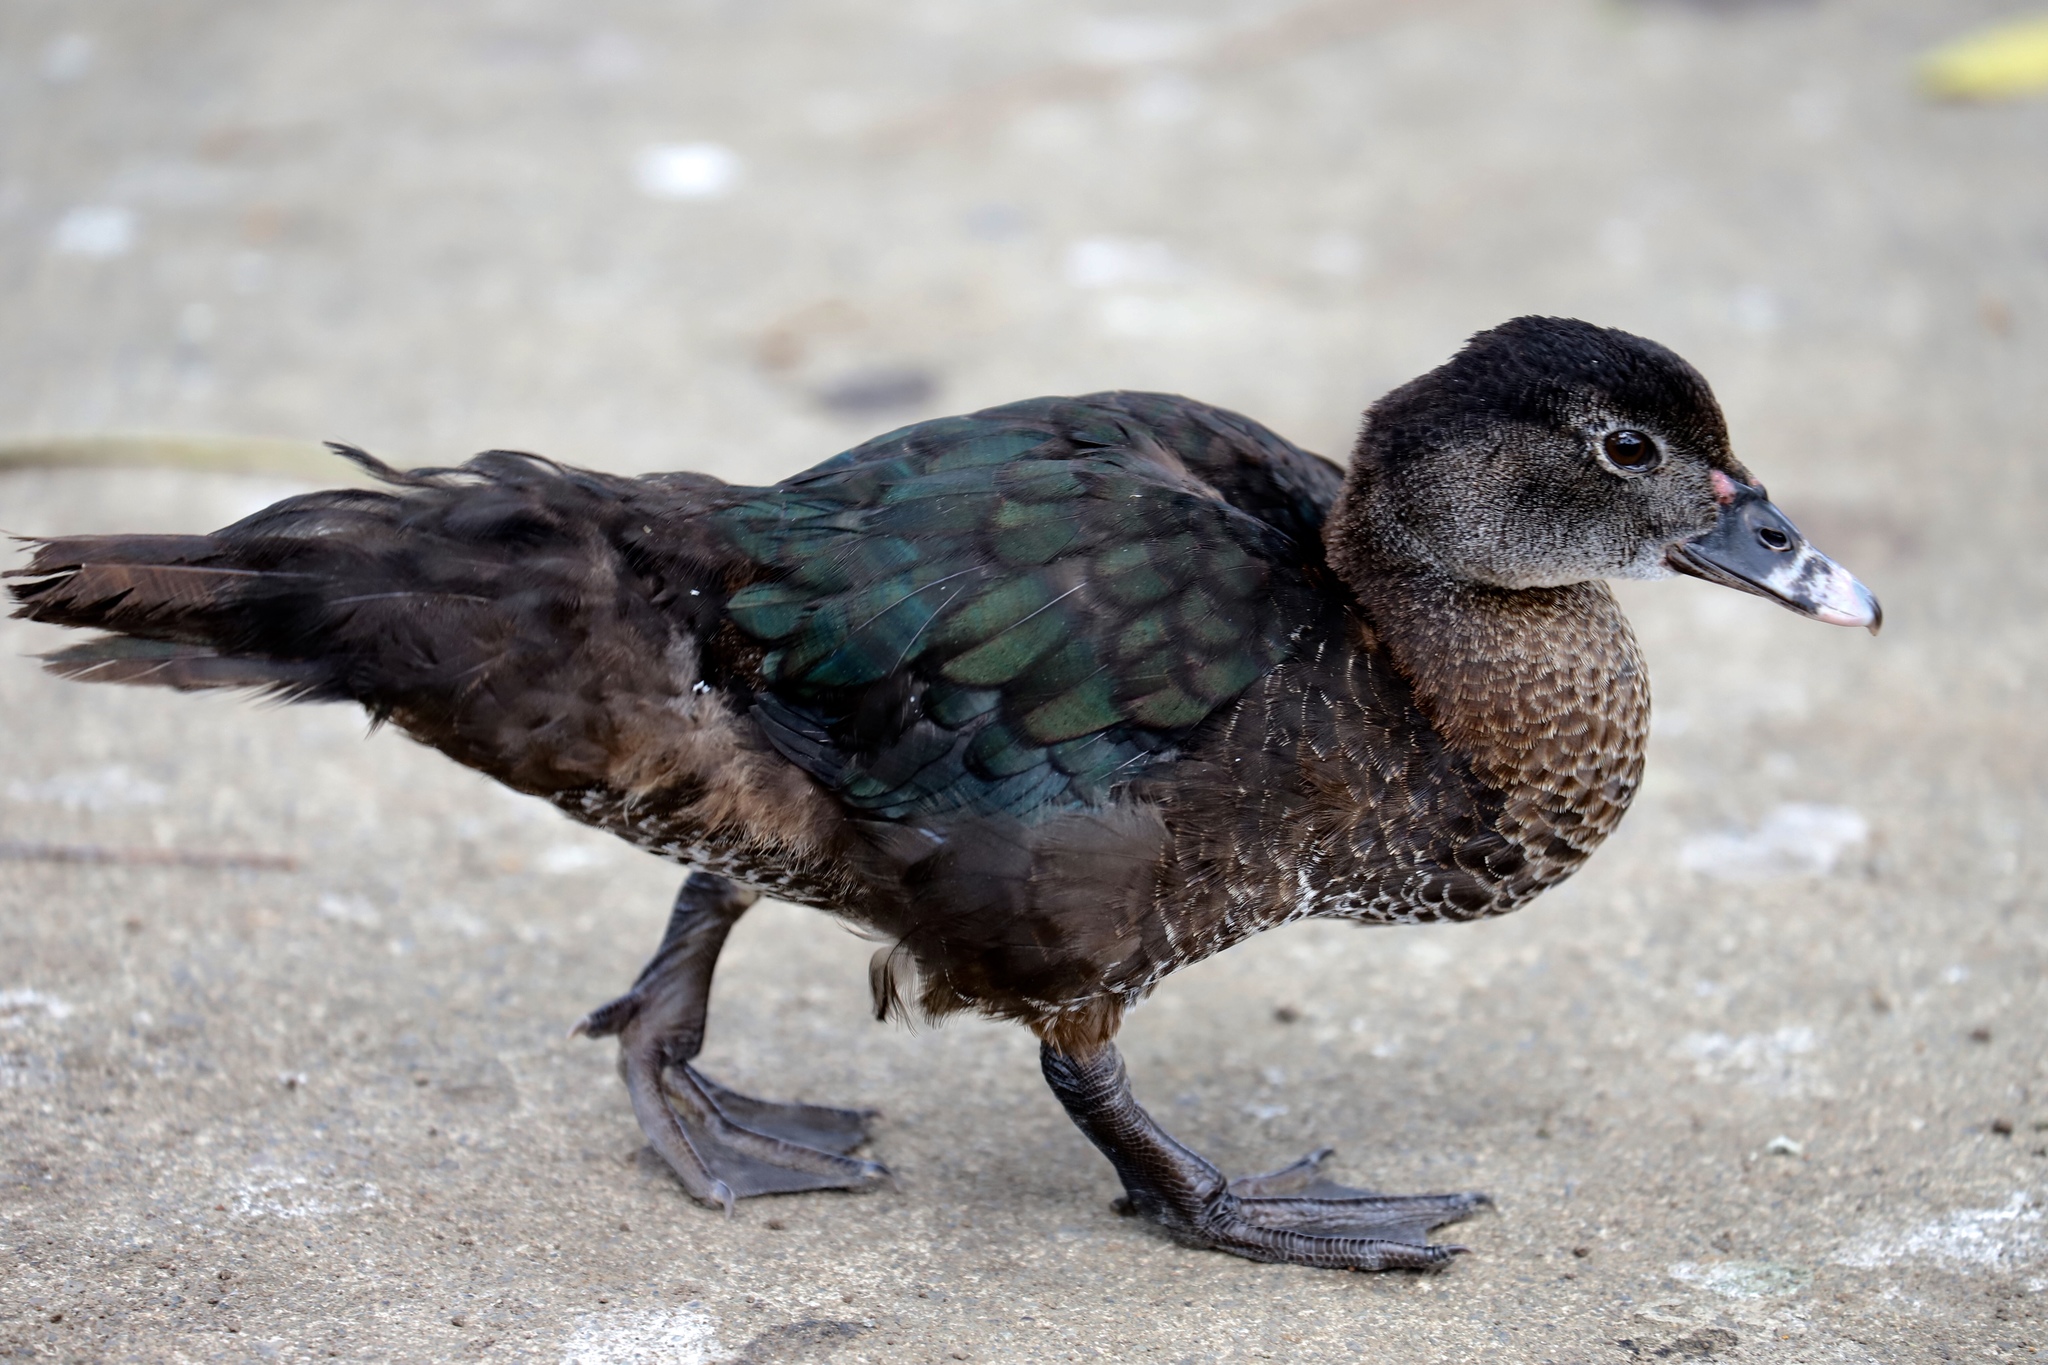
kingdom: Animalia
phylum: Chordata
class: Aves
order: Anseriformes
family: Anatidae
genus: Cairina
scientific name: Cairina moschata
